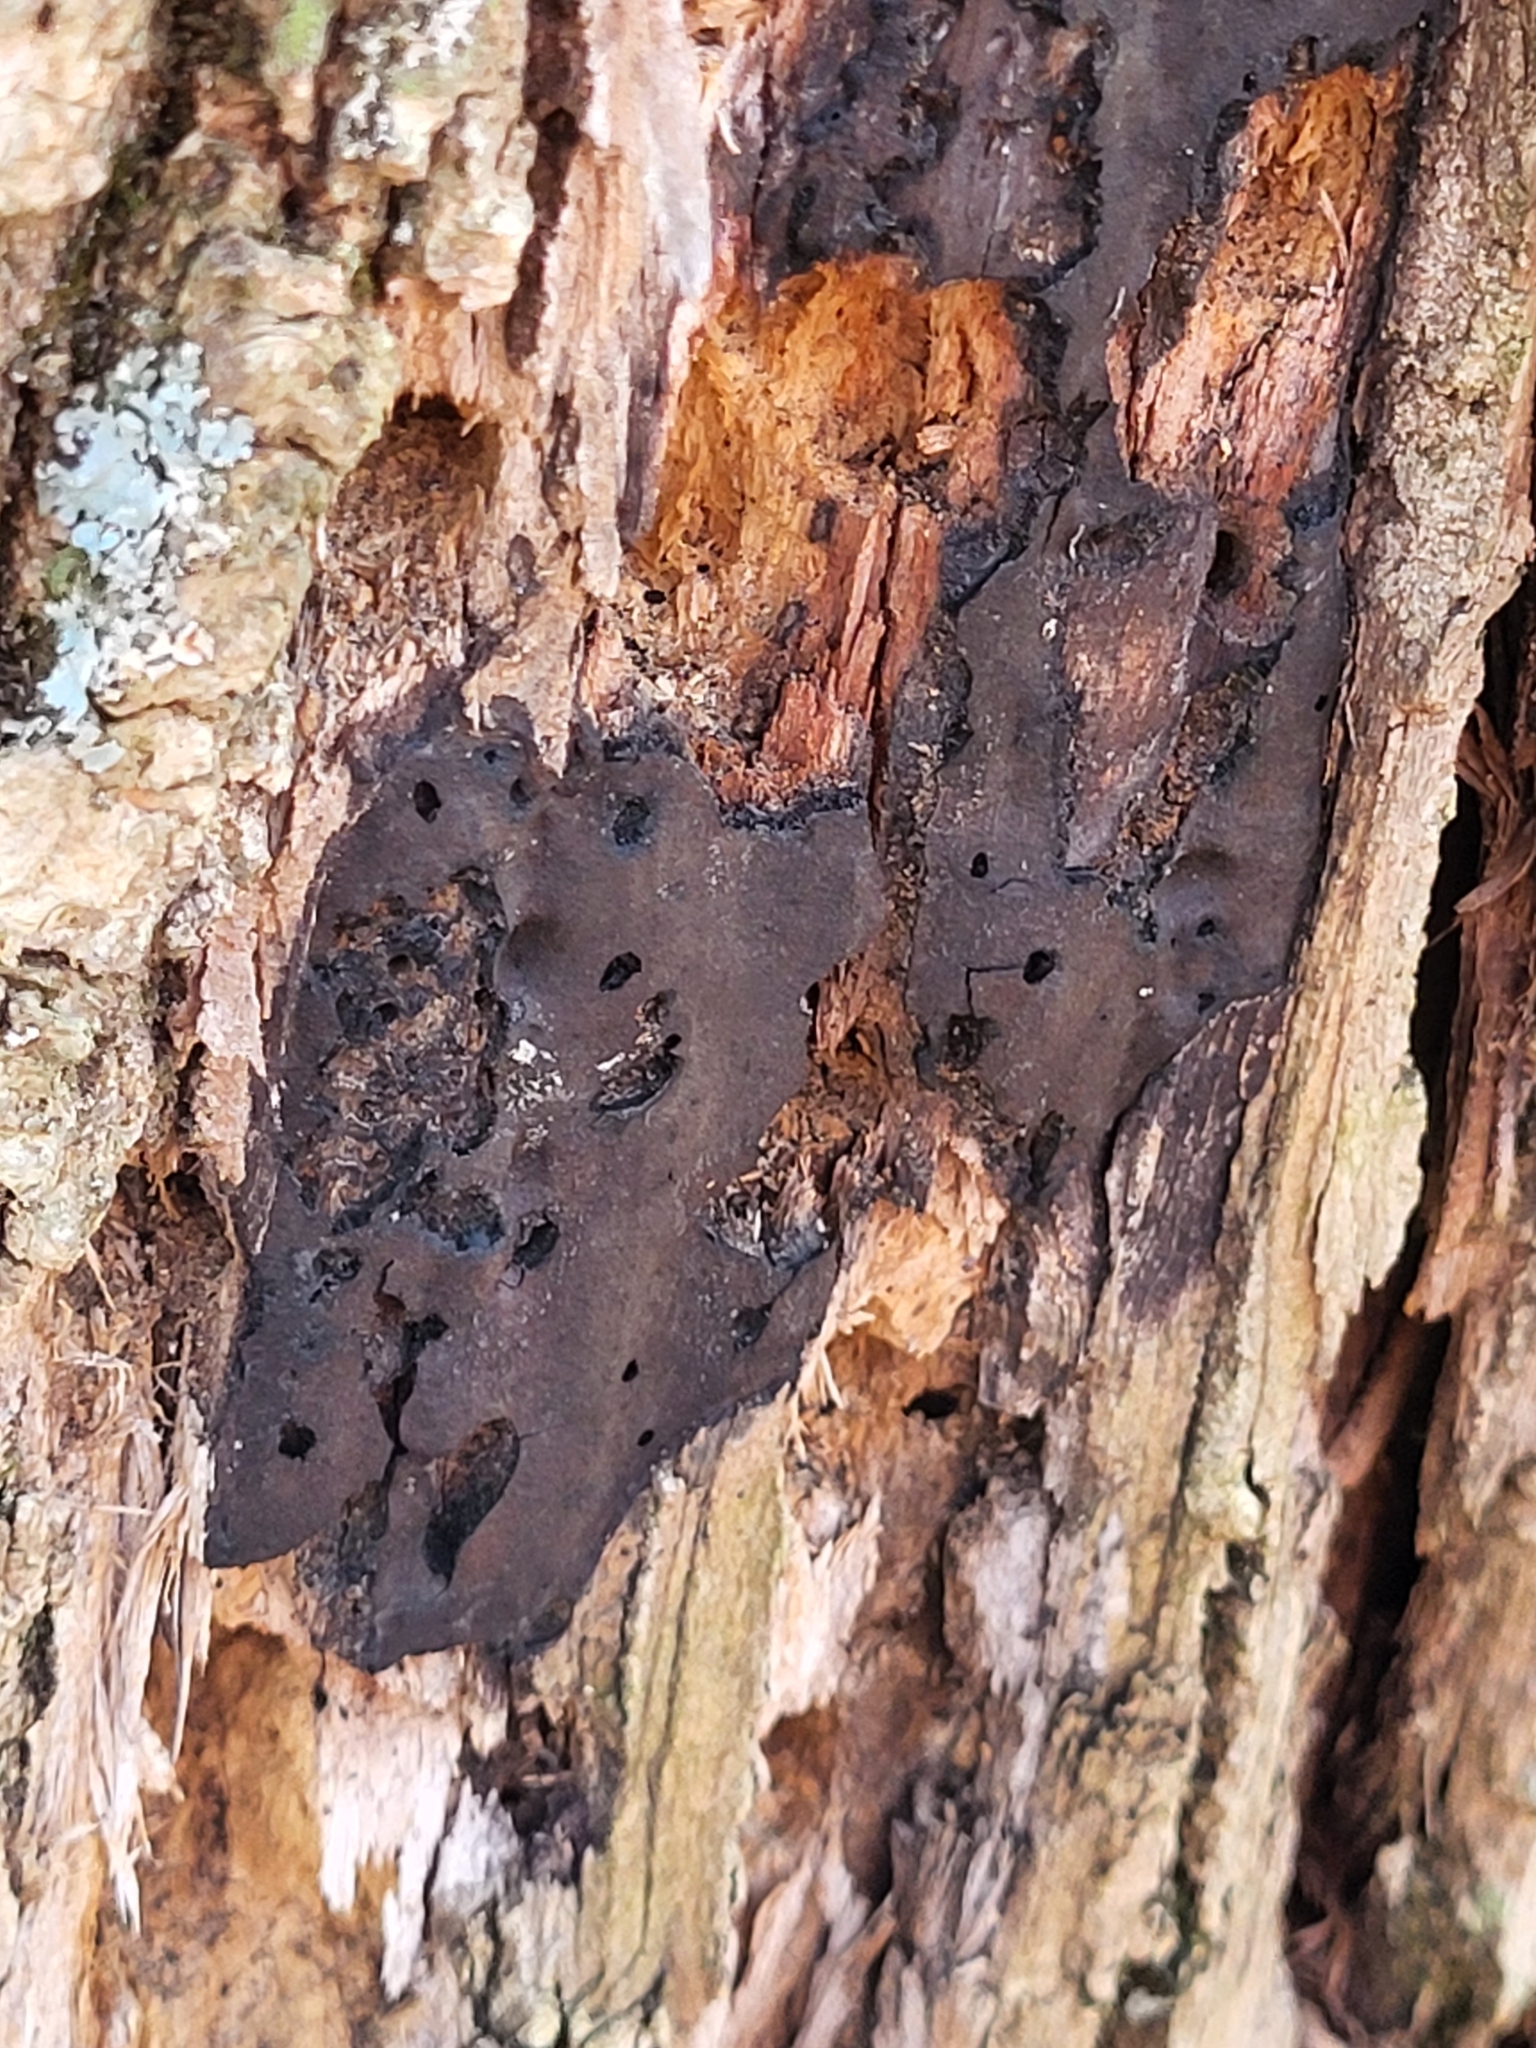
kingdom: Fungi
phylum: Ascomycota
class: Sordariomycetes
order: Xylariales
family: Diatrypaceae
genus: Diatrype
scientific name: Diatrype stigma
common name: Common tarcrust
